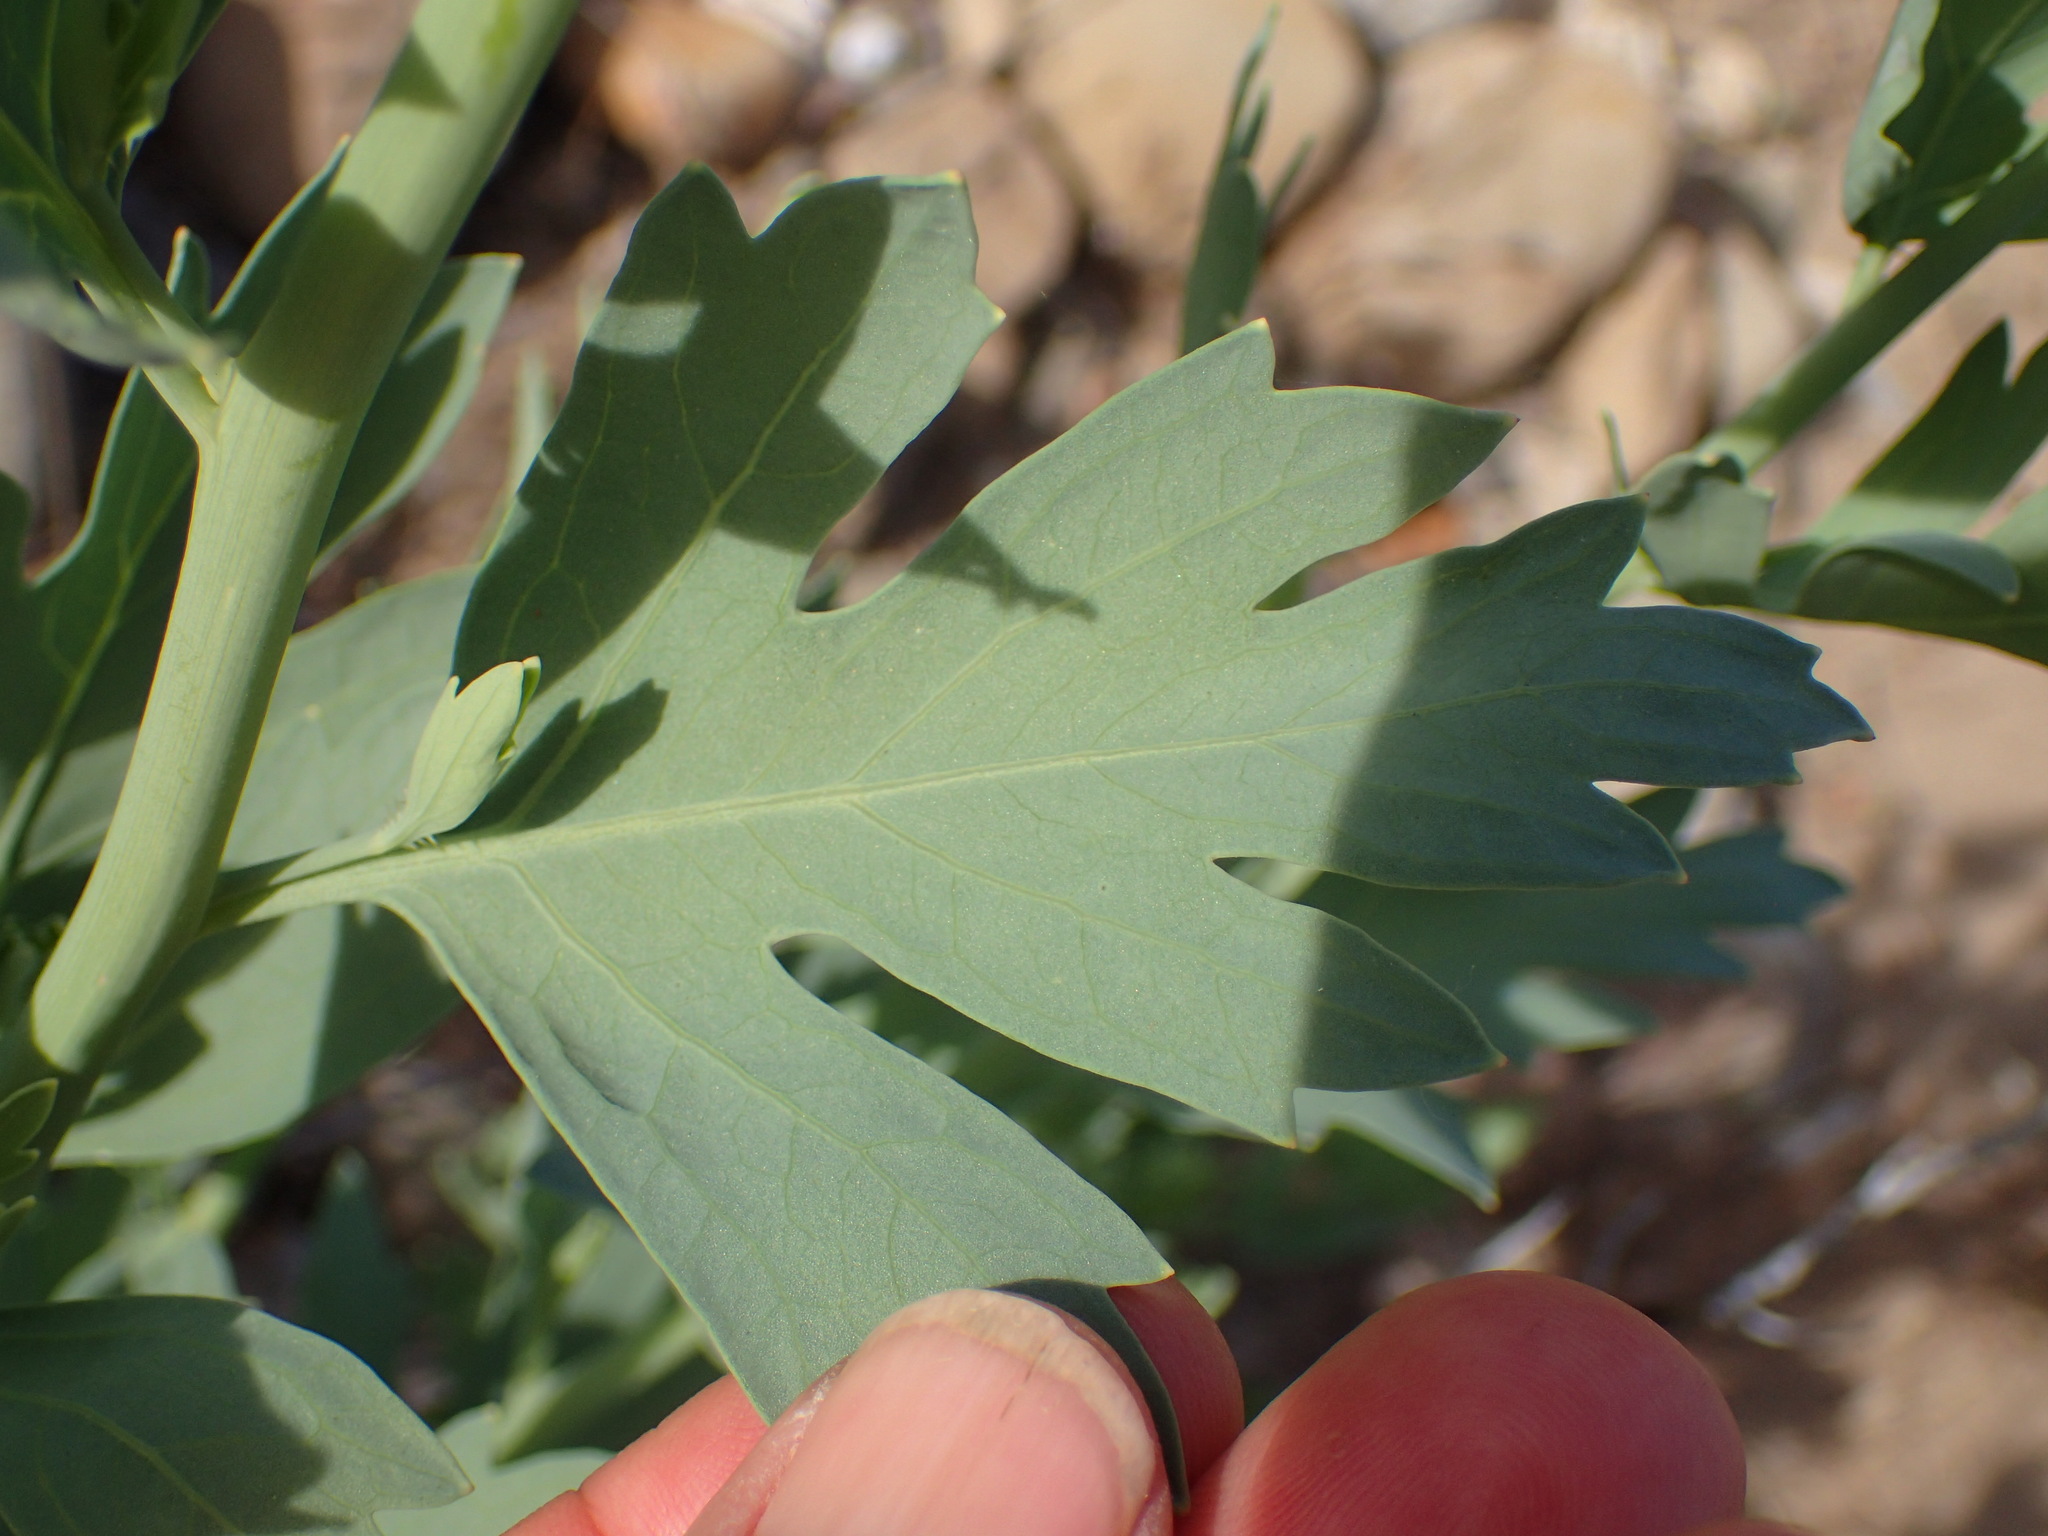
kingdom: Plantae
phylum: Tracheophyta
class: Magnoliopsida
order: Ranunculales
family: Papaveraceae
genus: Romneya
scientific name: Romneya trichocalyx
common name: Hairy matilija-poppy
